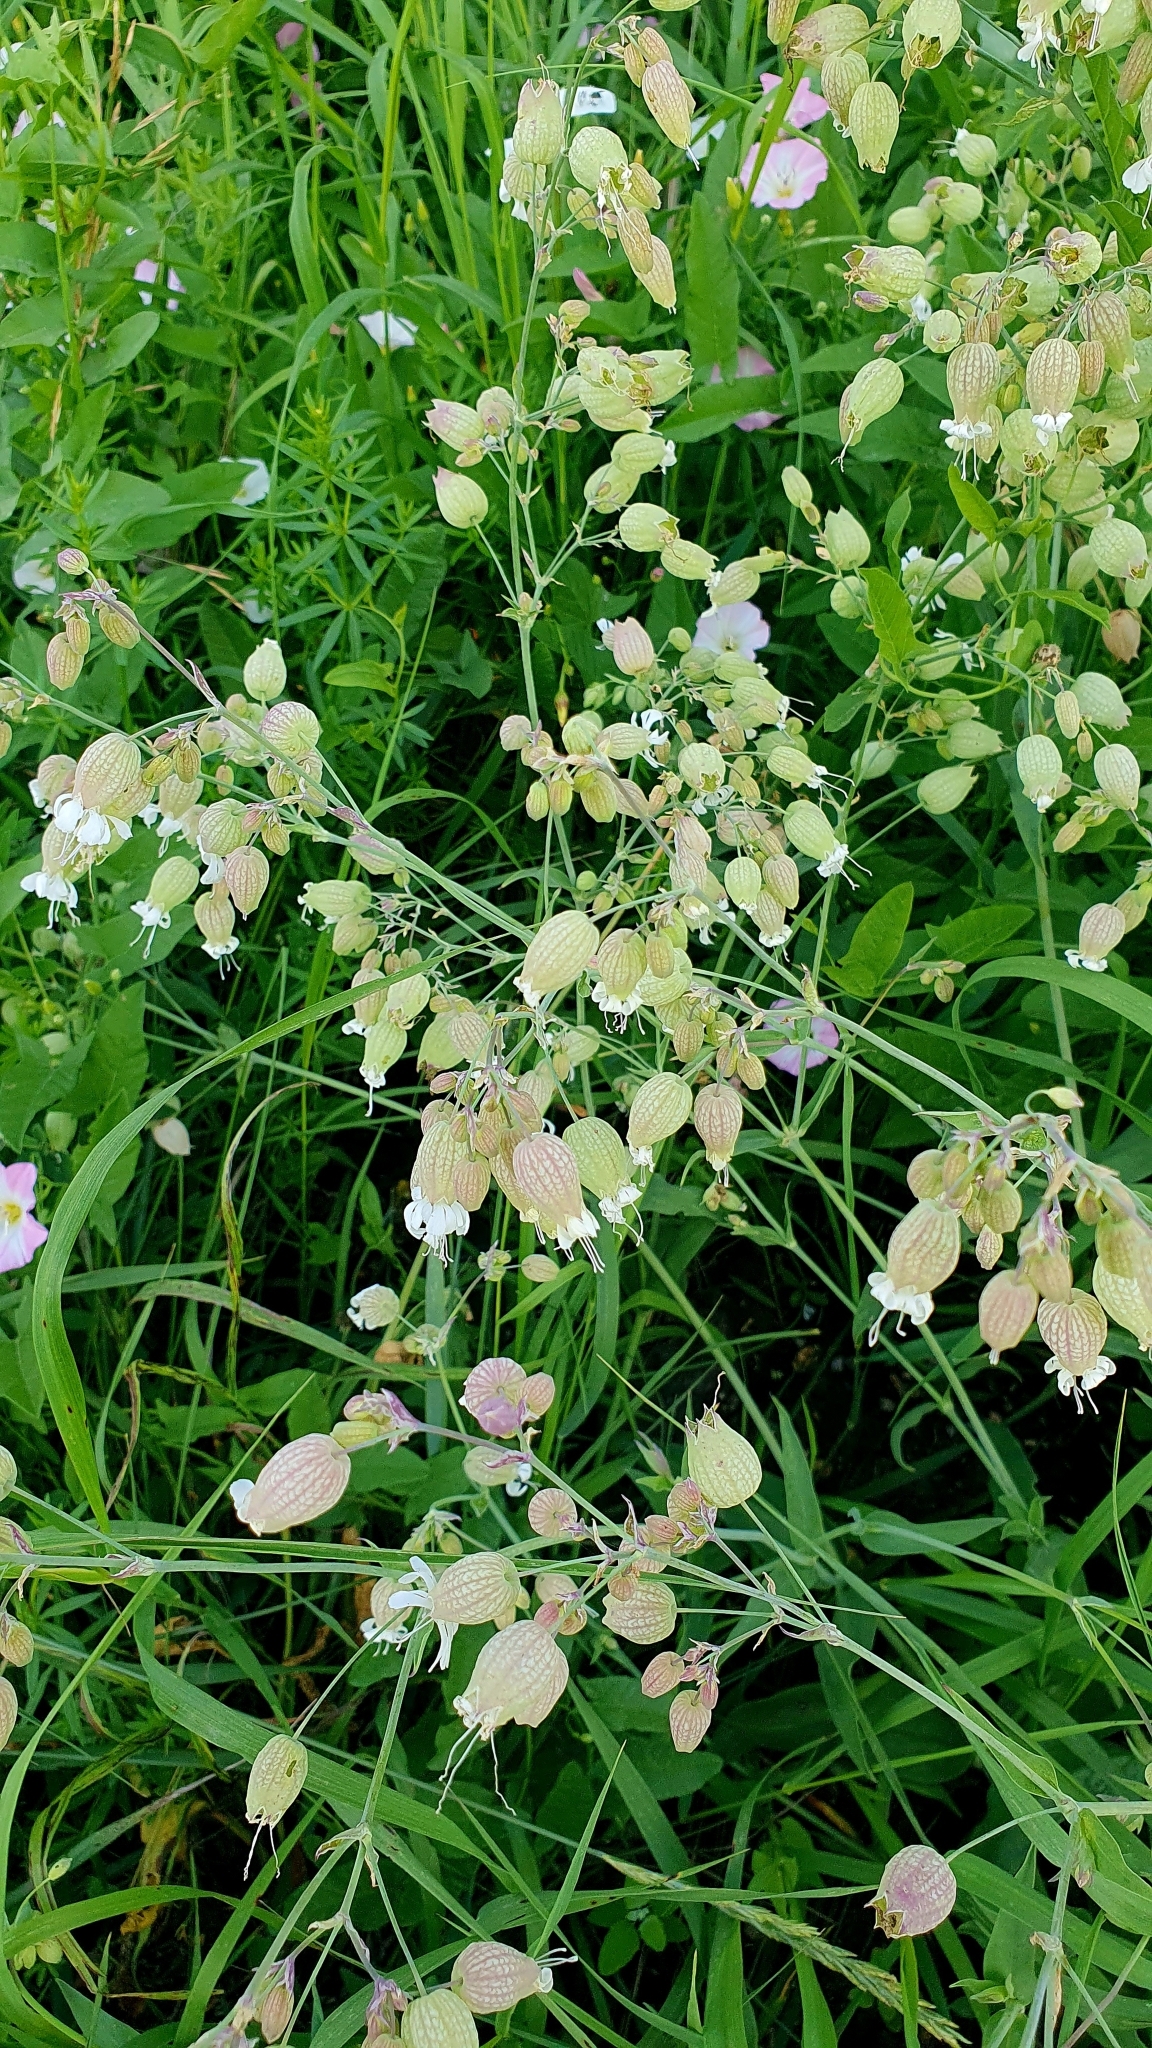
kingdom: Plantae
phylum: Tracheophyta
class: Magnoliopsida
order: Caryophyllales
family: Caryophyllaceae
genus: Silene
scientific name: Silene vulgaris
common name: Bladder campion
